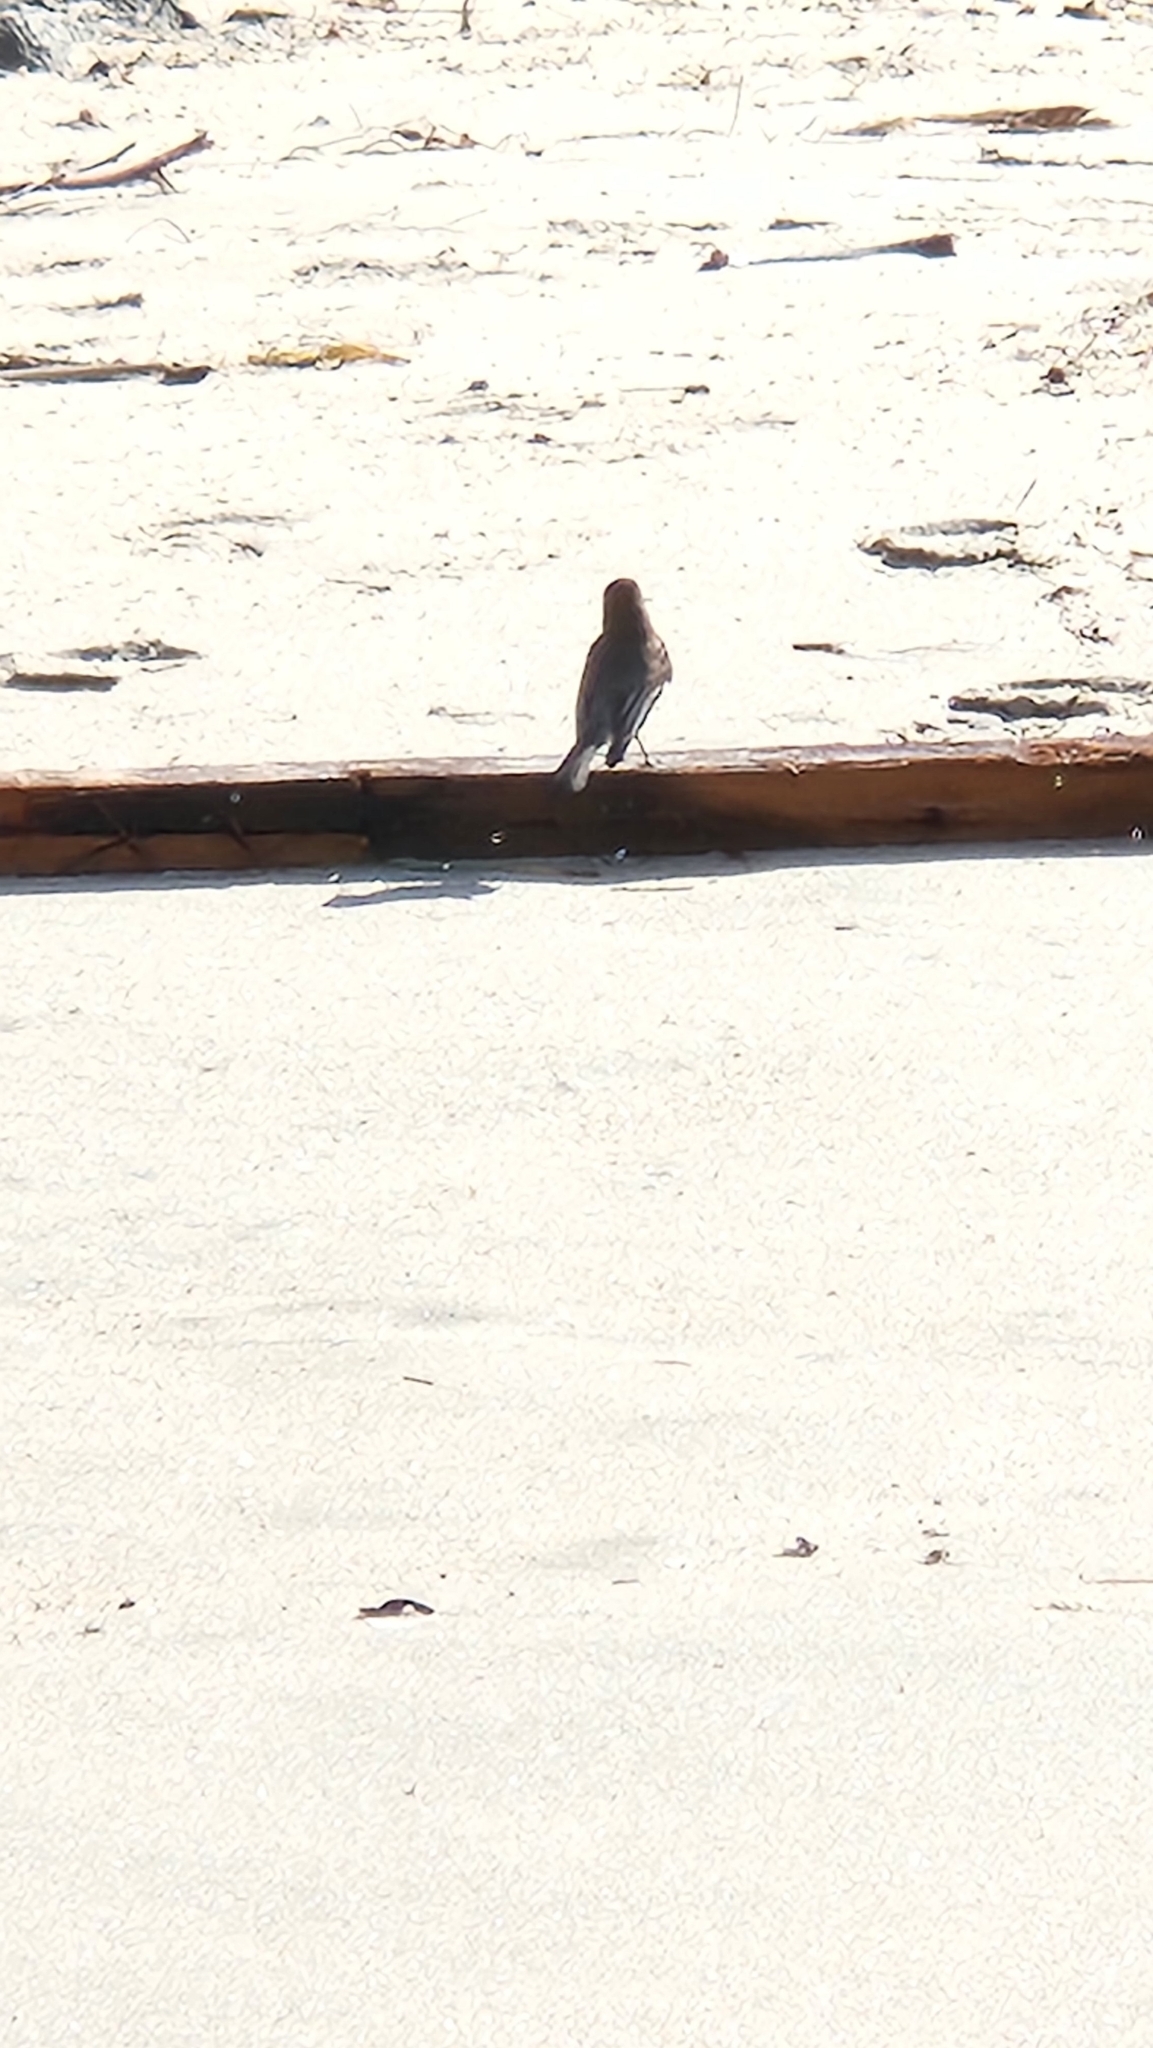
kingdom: Animalia
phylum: Chordata
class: Aves
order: Passeriformes
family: Tyrannidae
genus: Sayornis
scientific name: Sayornis nigricans
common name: Black phoebe
